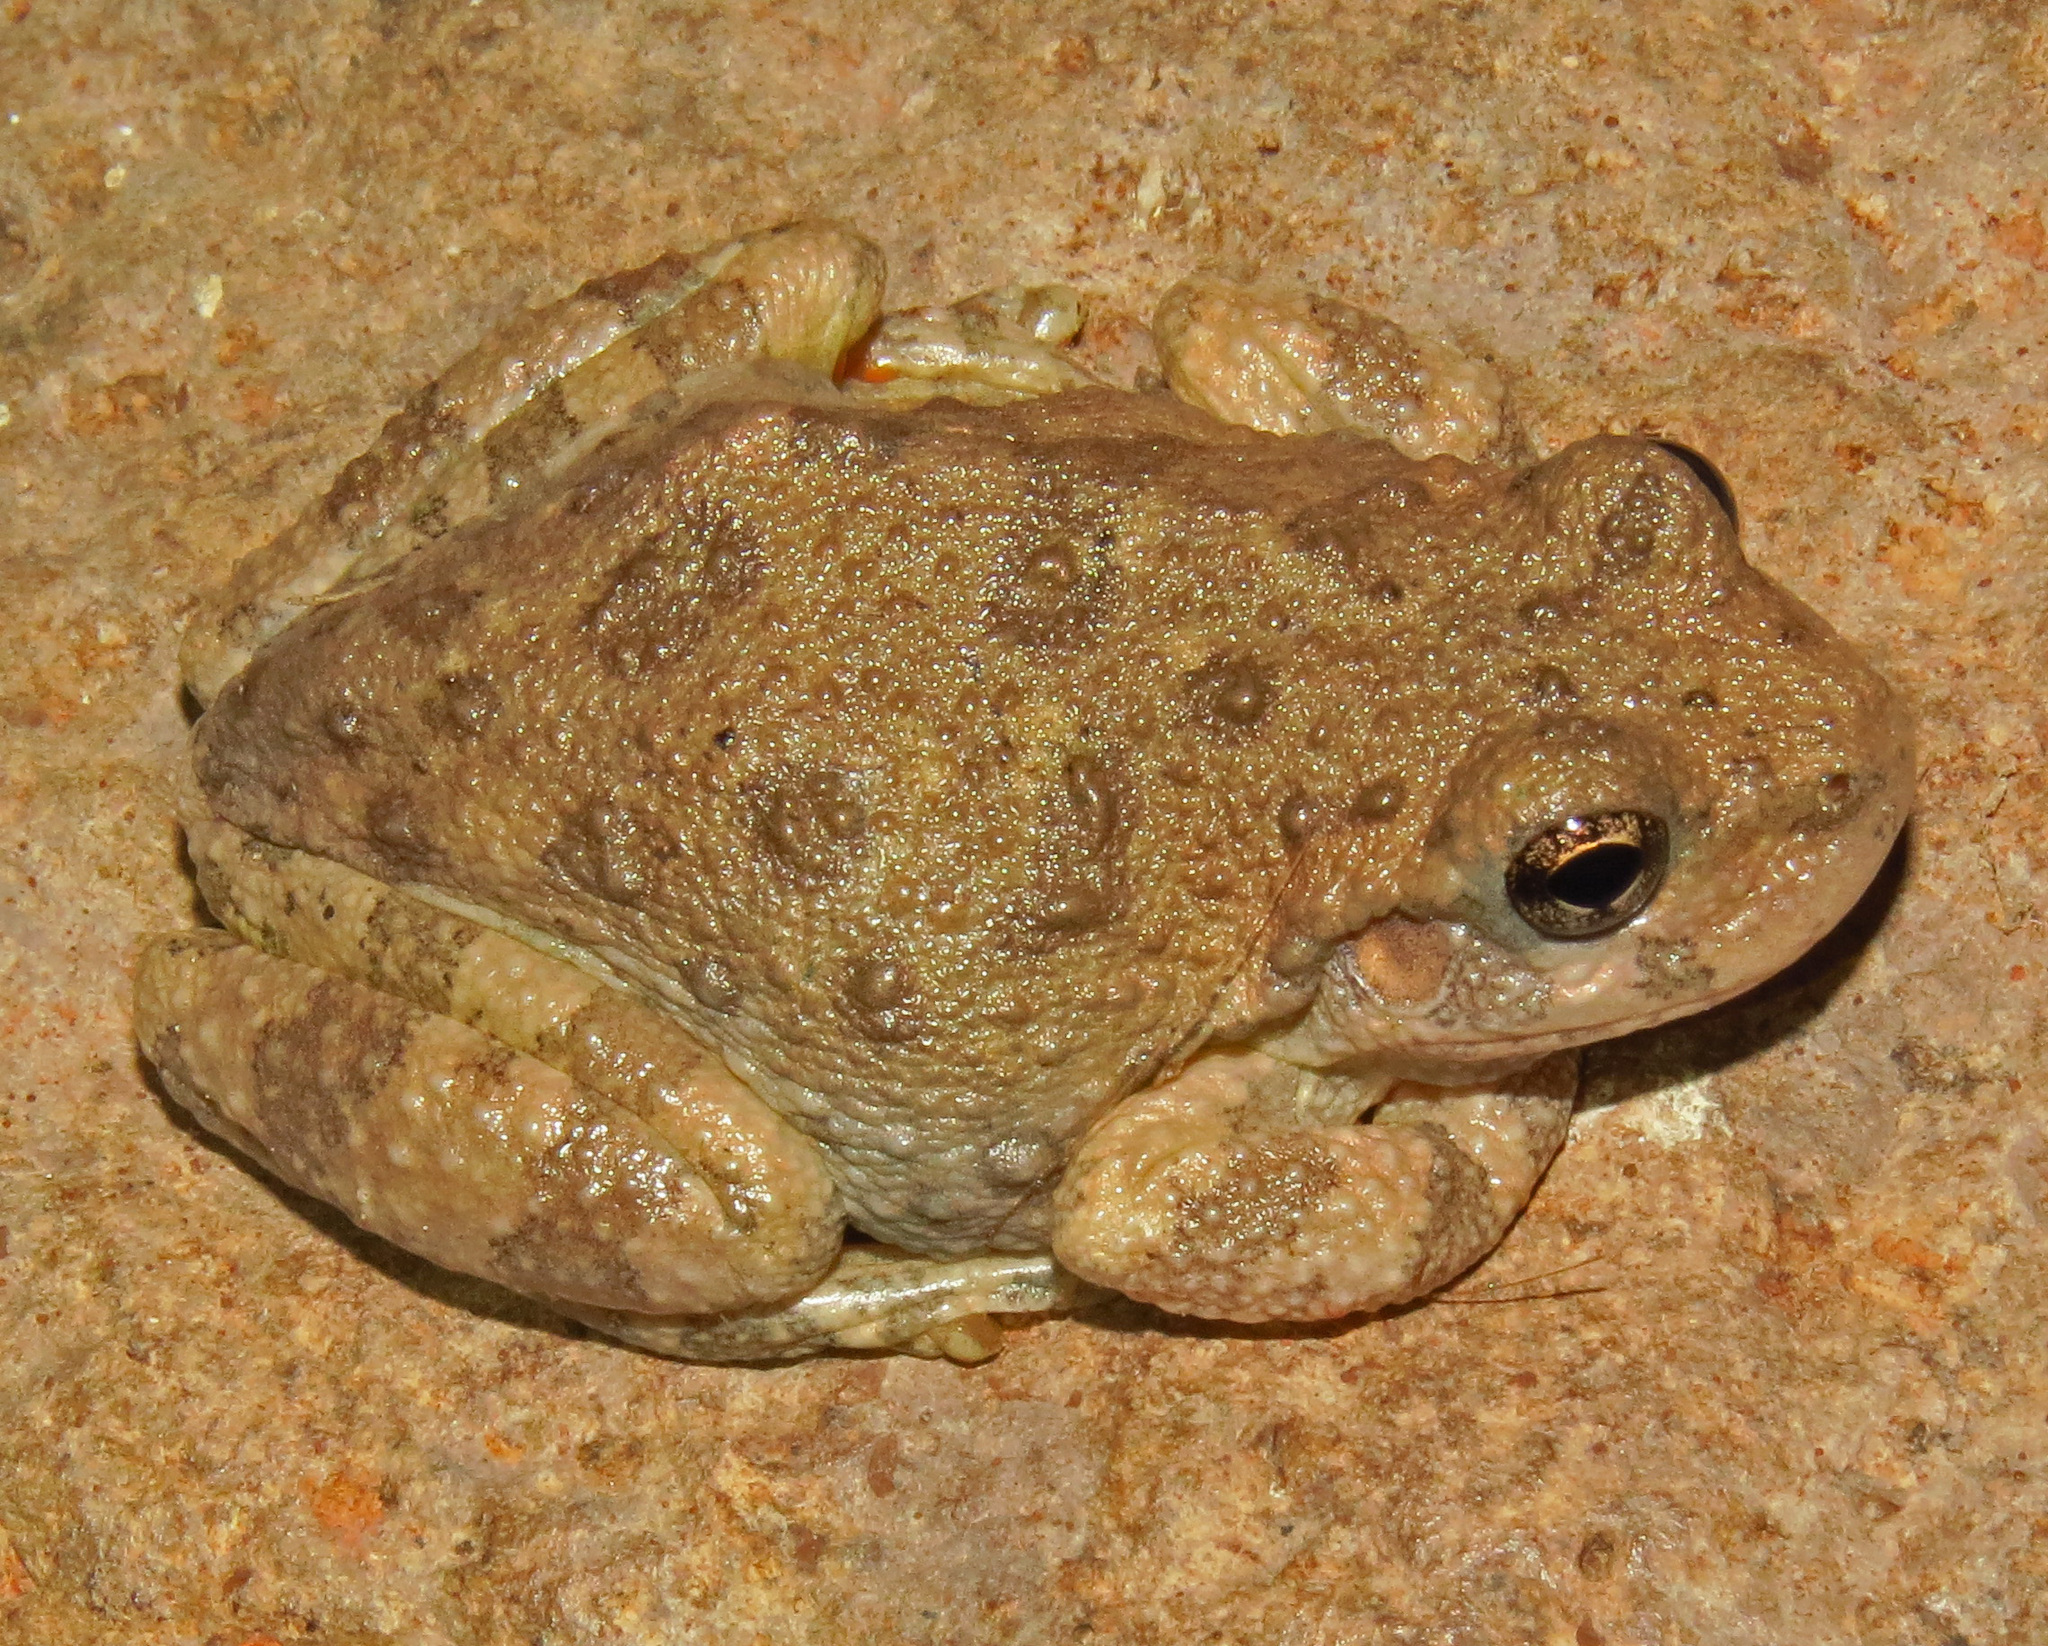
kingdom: Animalia
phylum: Chordata
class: Amphibia
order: Anura
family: Hylidae
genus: Dryophytes
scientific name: Dryophytes arenicolor
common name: Canyon treefrog
